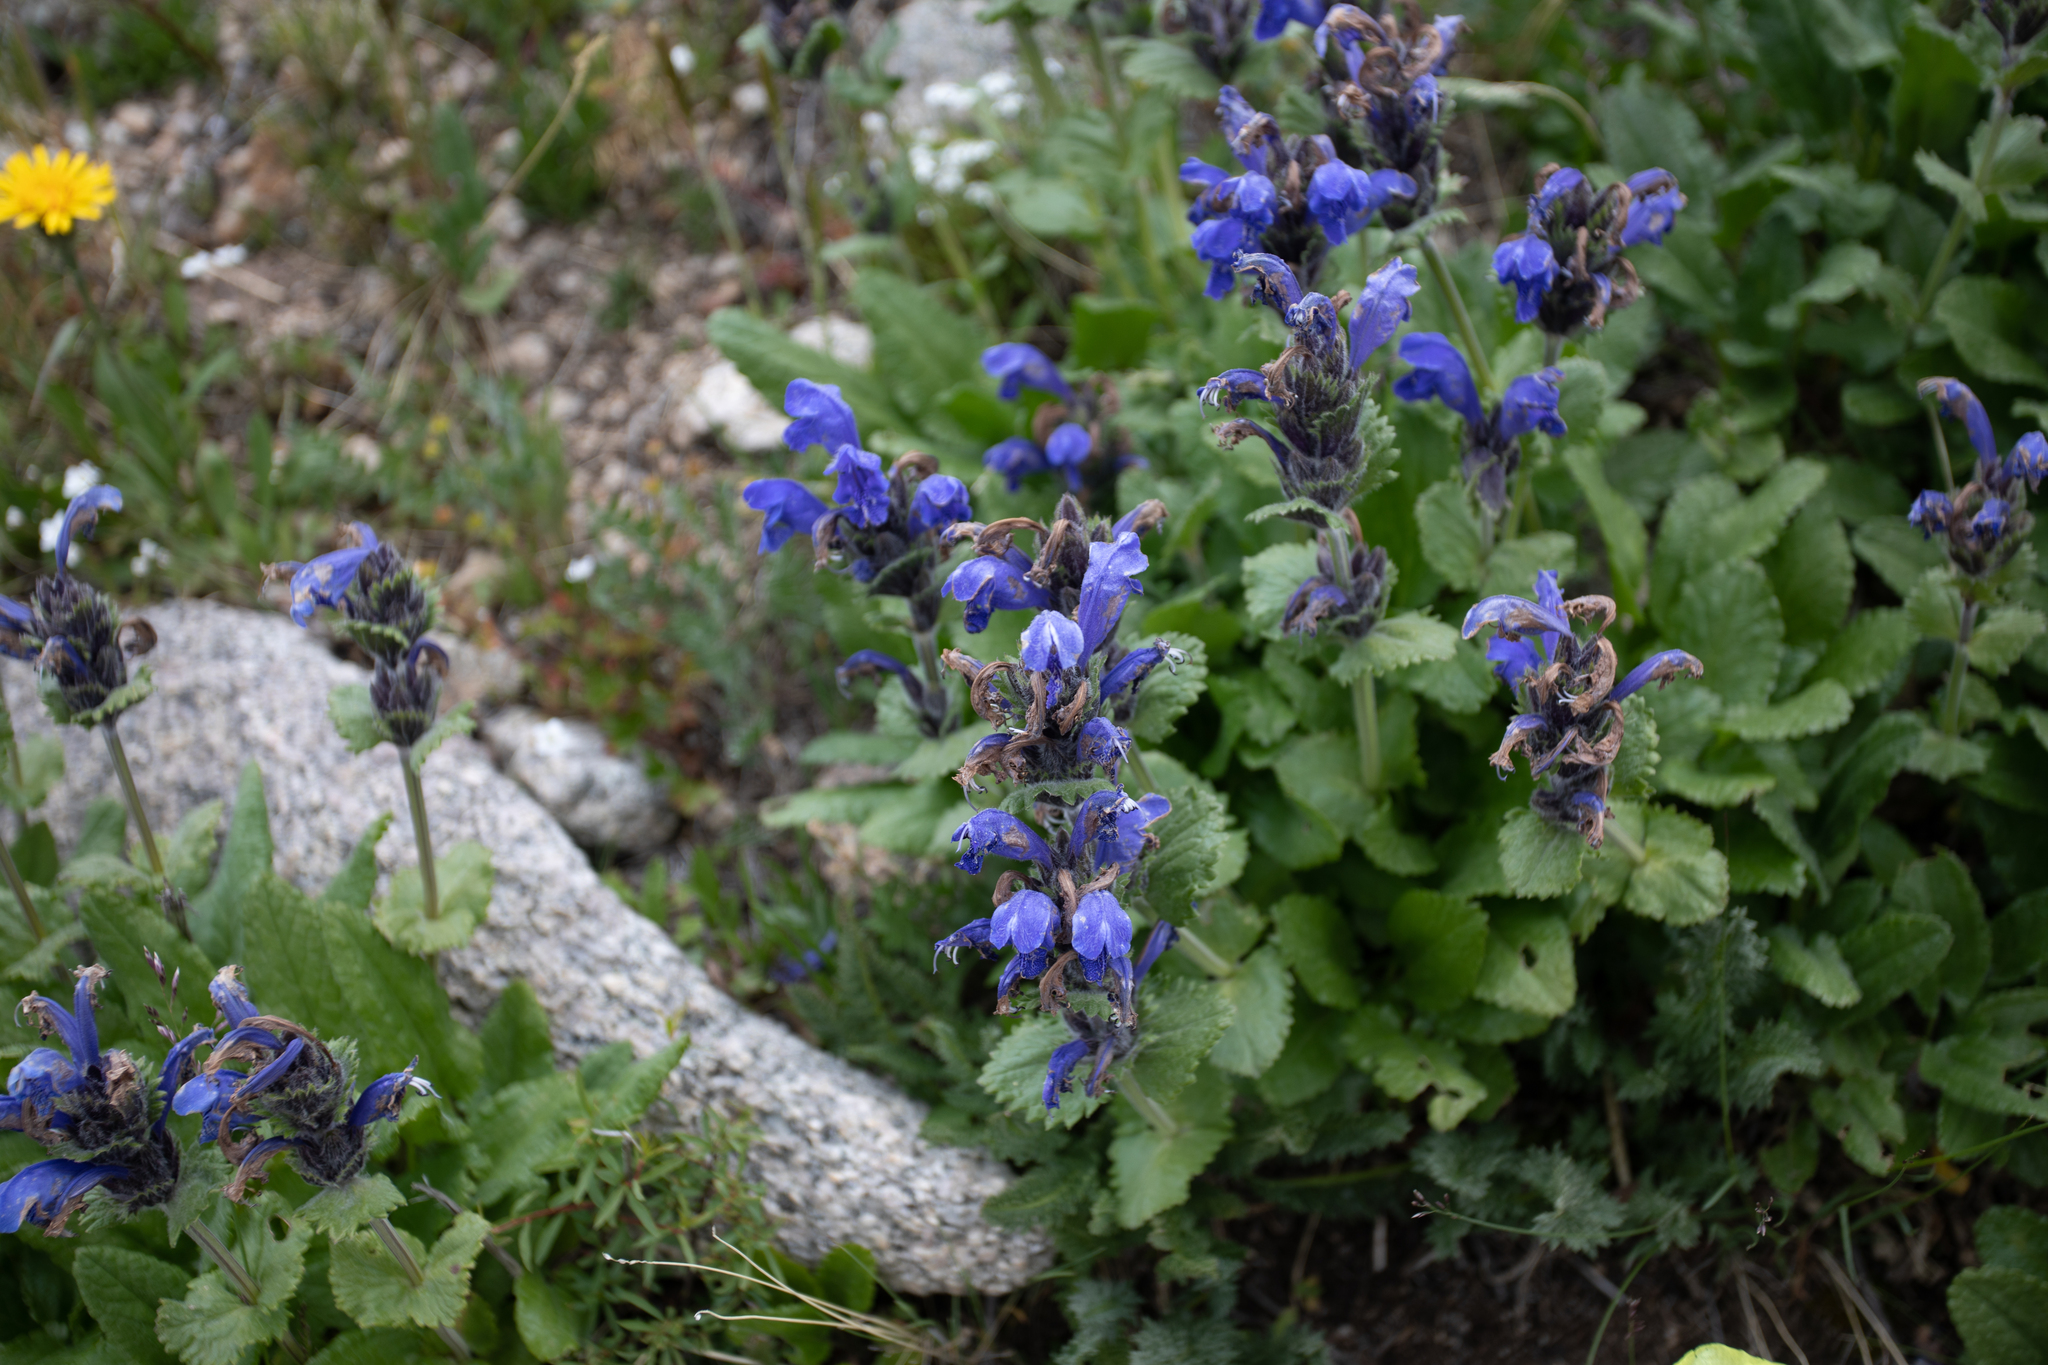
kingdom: Plantae
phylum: Tracheophyta
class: Magnoliopsida
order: Lamiales
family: Lamiaceae
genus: Dracocephalum
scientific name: Dracocephalum grandiflorum
